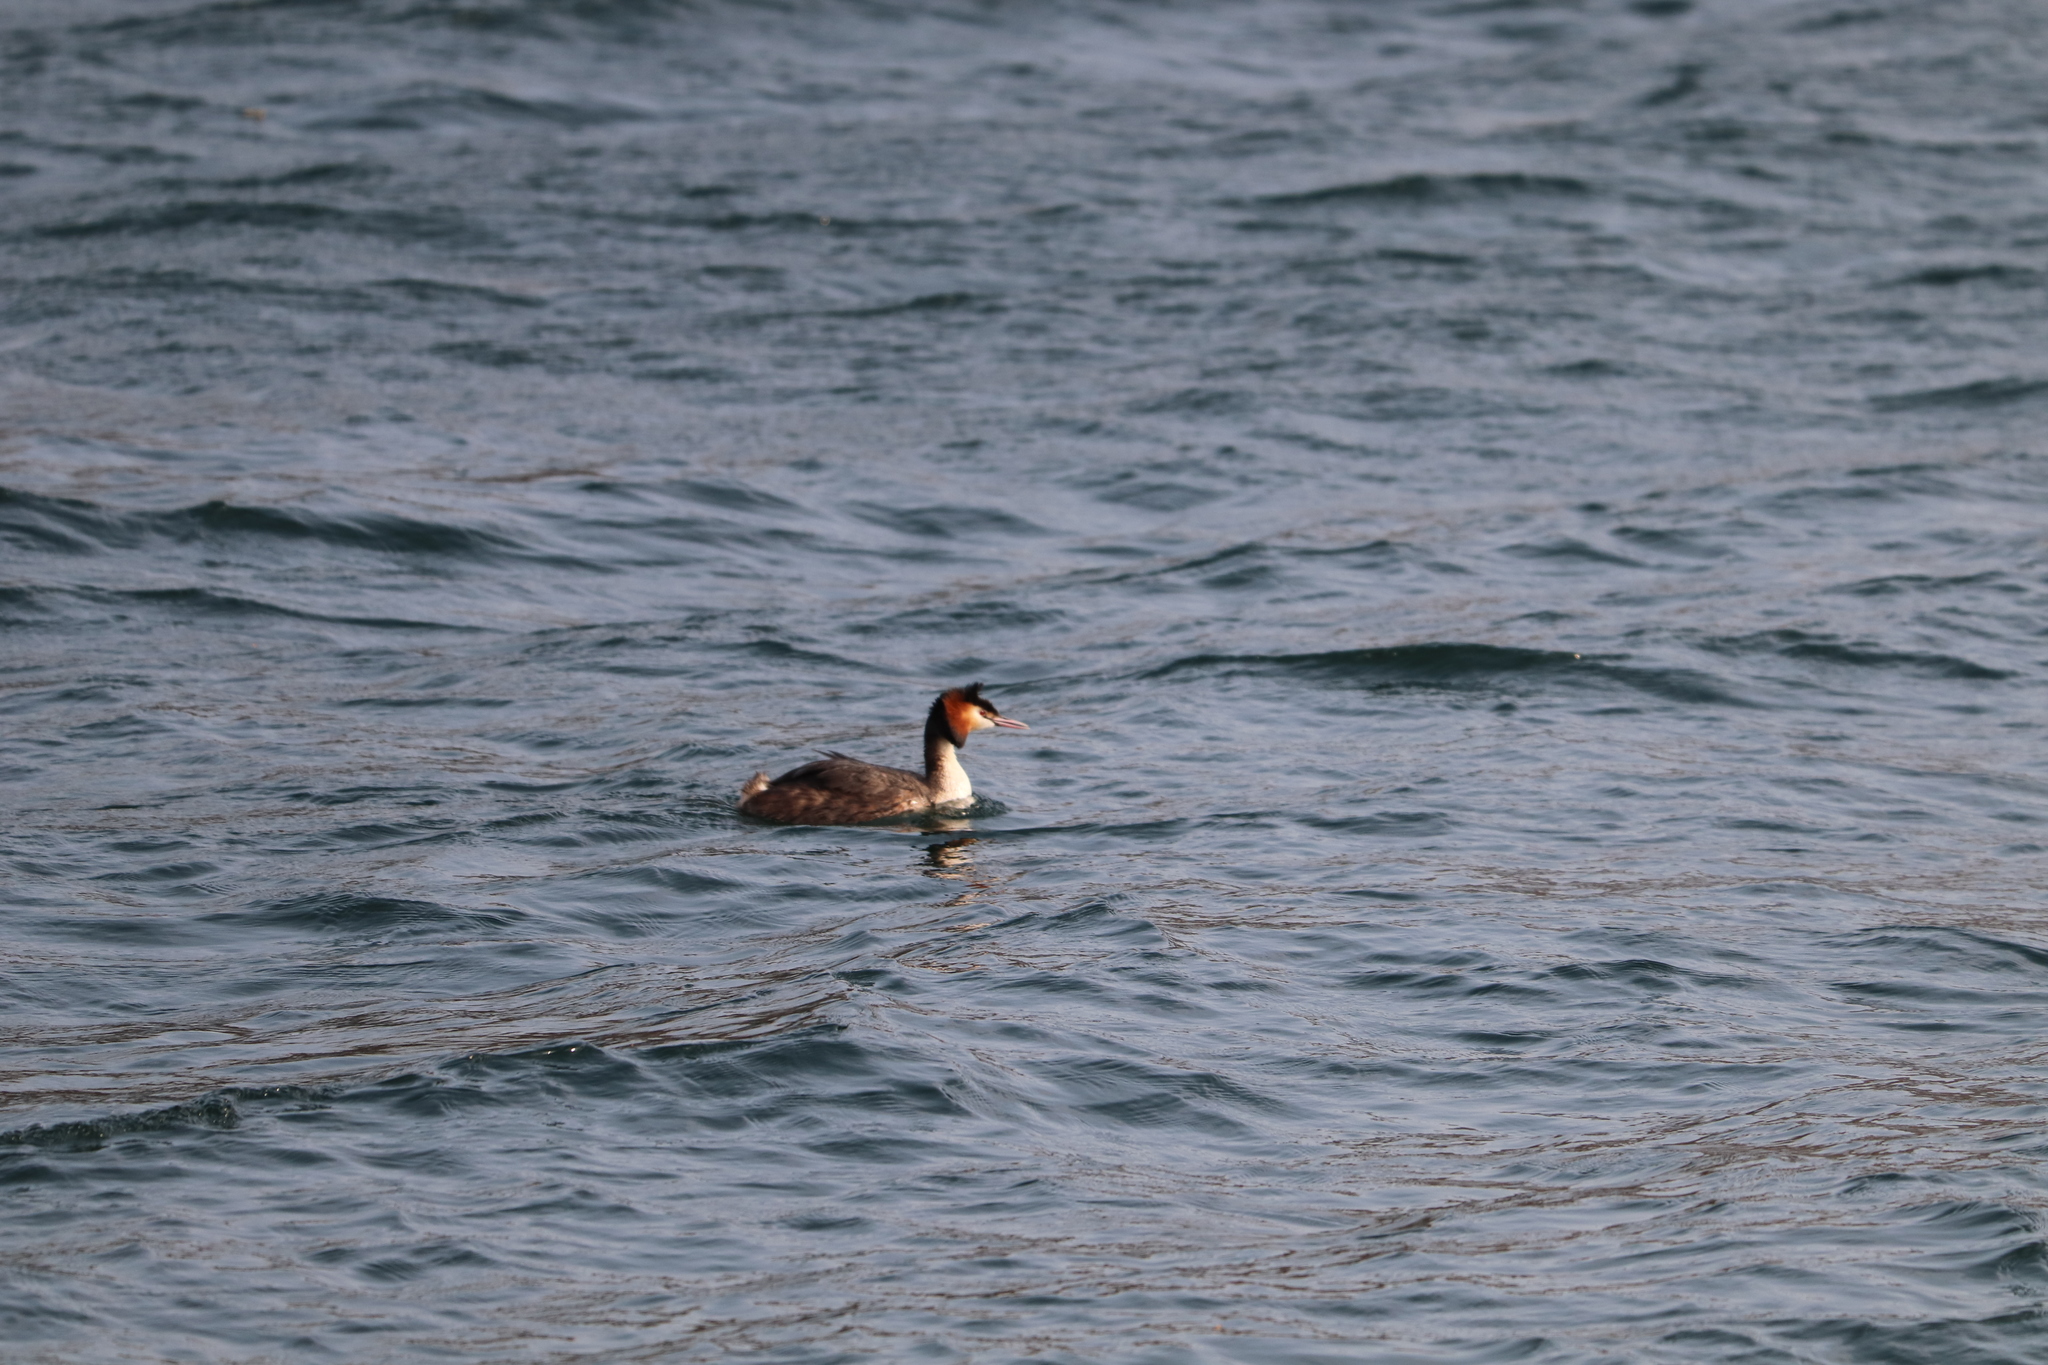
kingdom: Animalia
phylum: Chordata
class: Aves
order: Podicipediformes
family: Podicipedidae
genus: Podiceps
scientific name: Podiceps cristatus
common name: Great crested grebe
